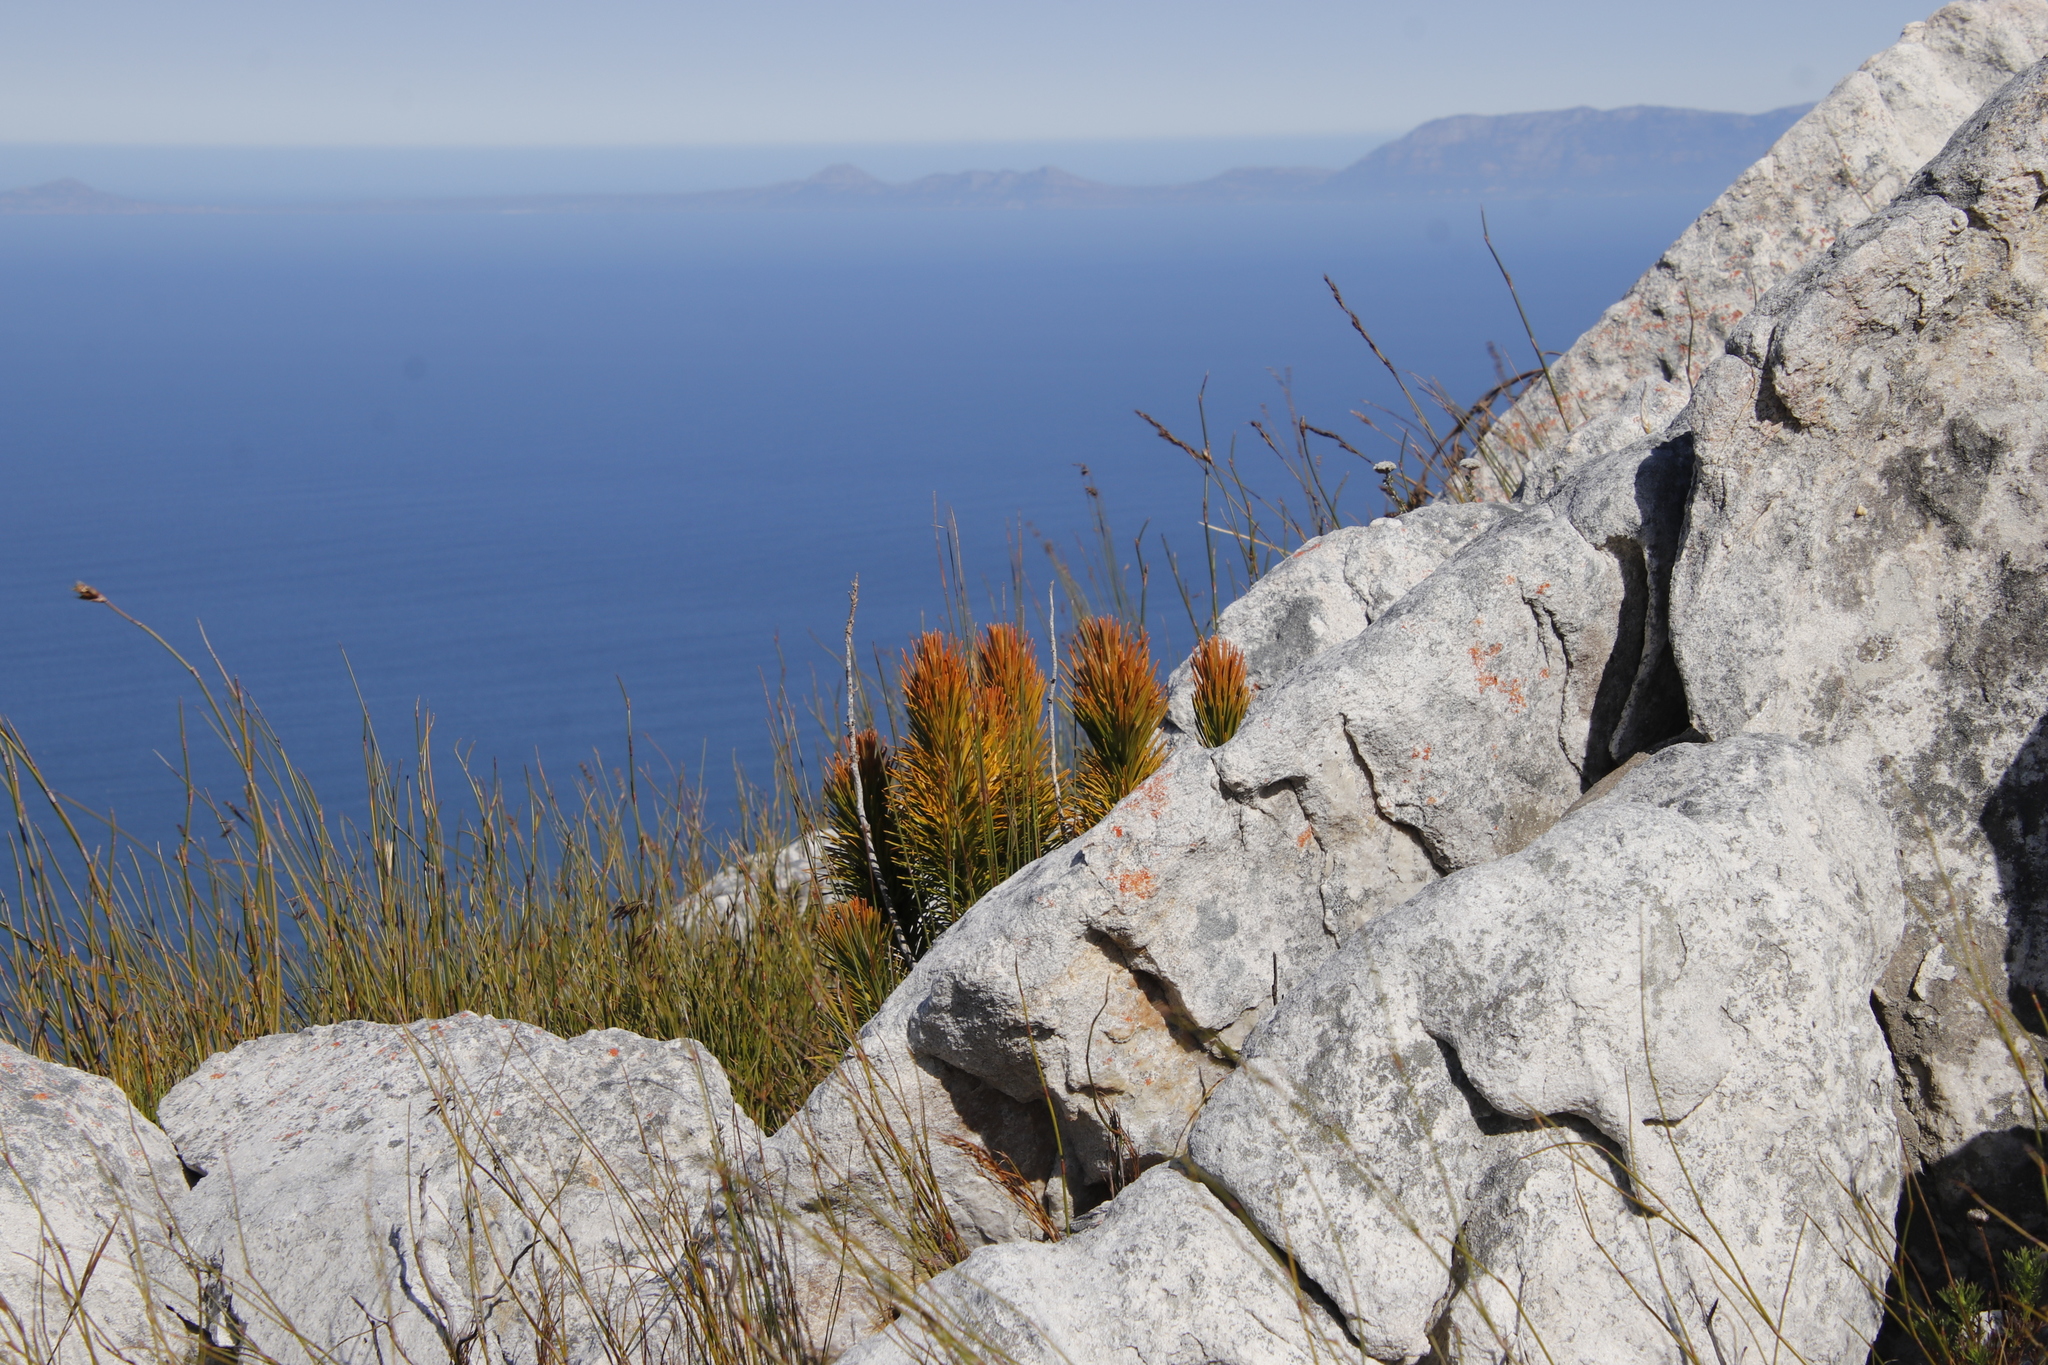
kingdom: Plantae
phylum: Tracheophyta
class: Magnoliopsida
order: Lamiales
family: Stilbaceae
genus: Retzia
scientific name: Retzia capensis
